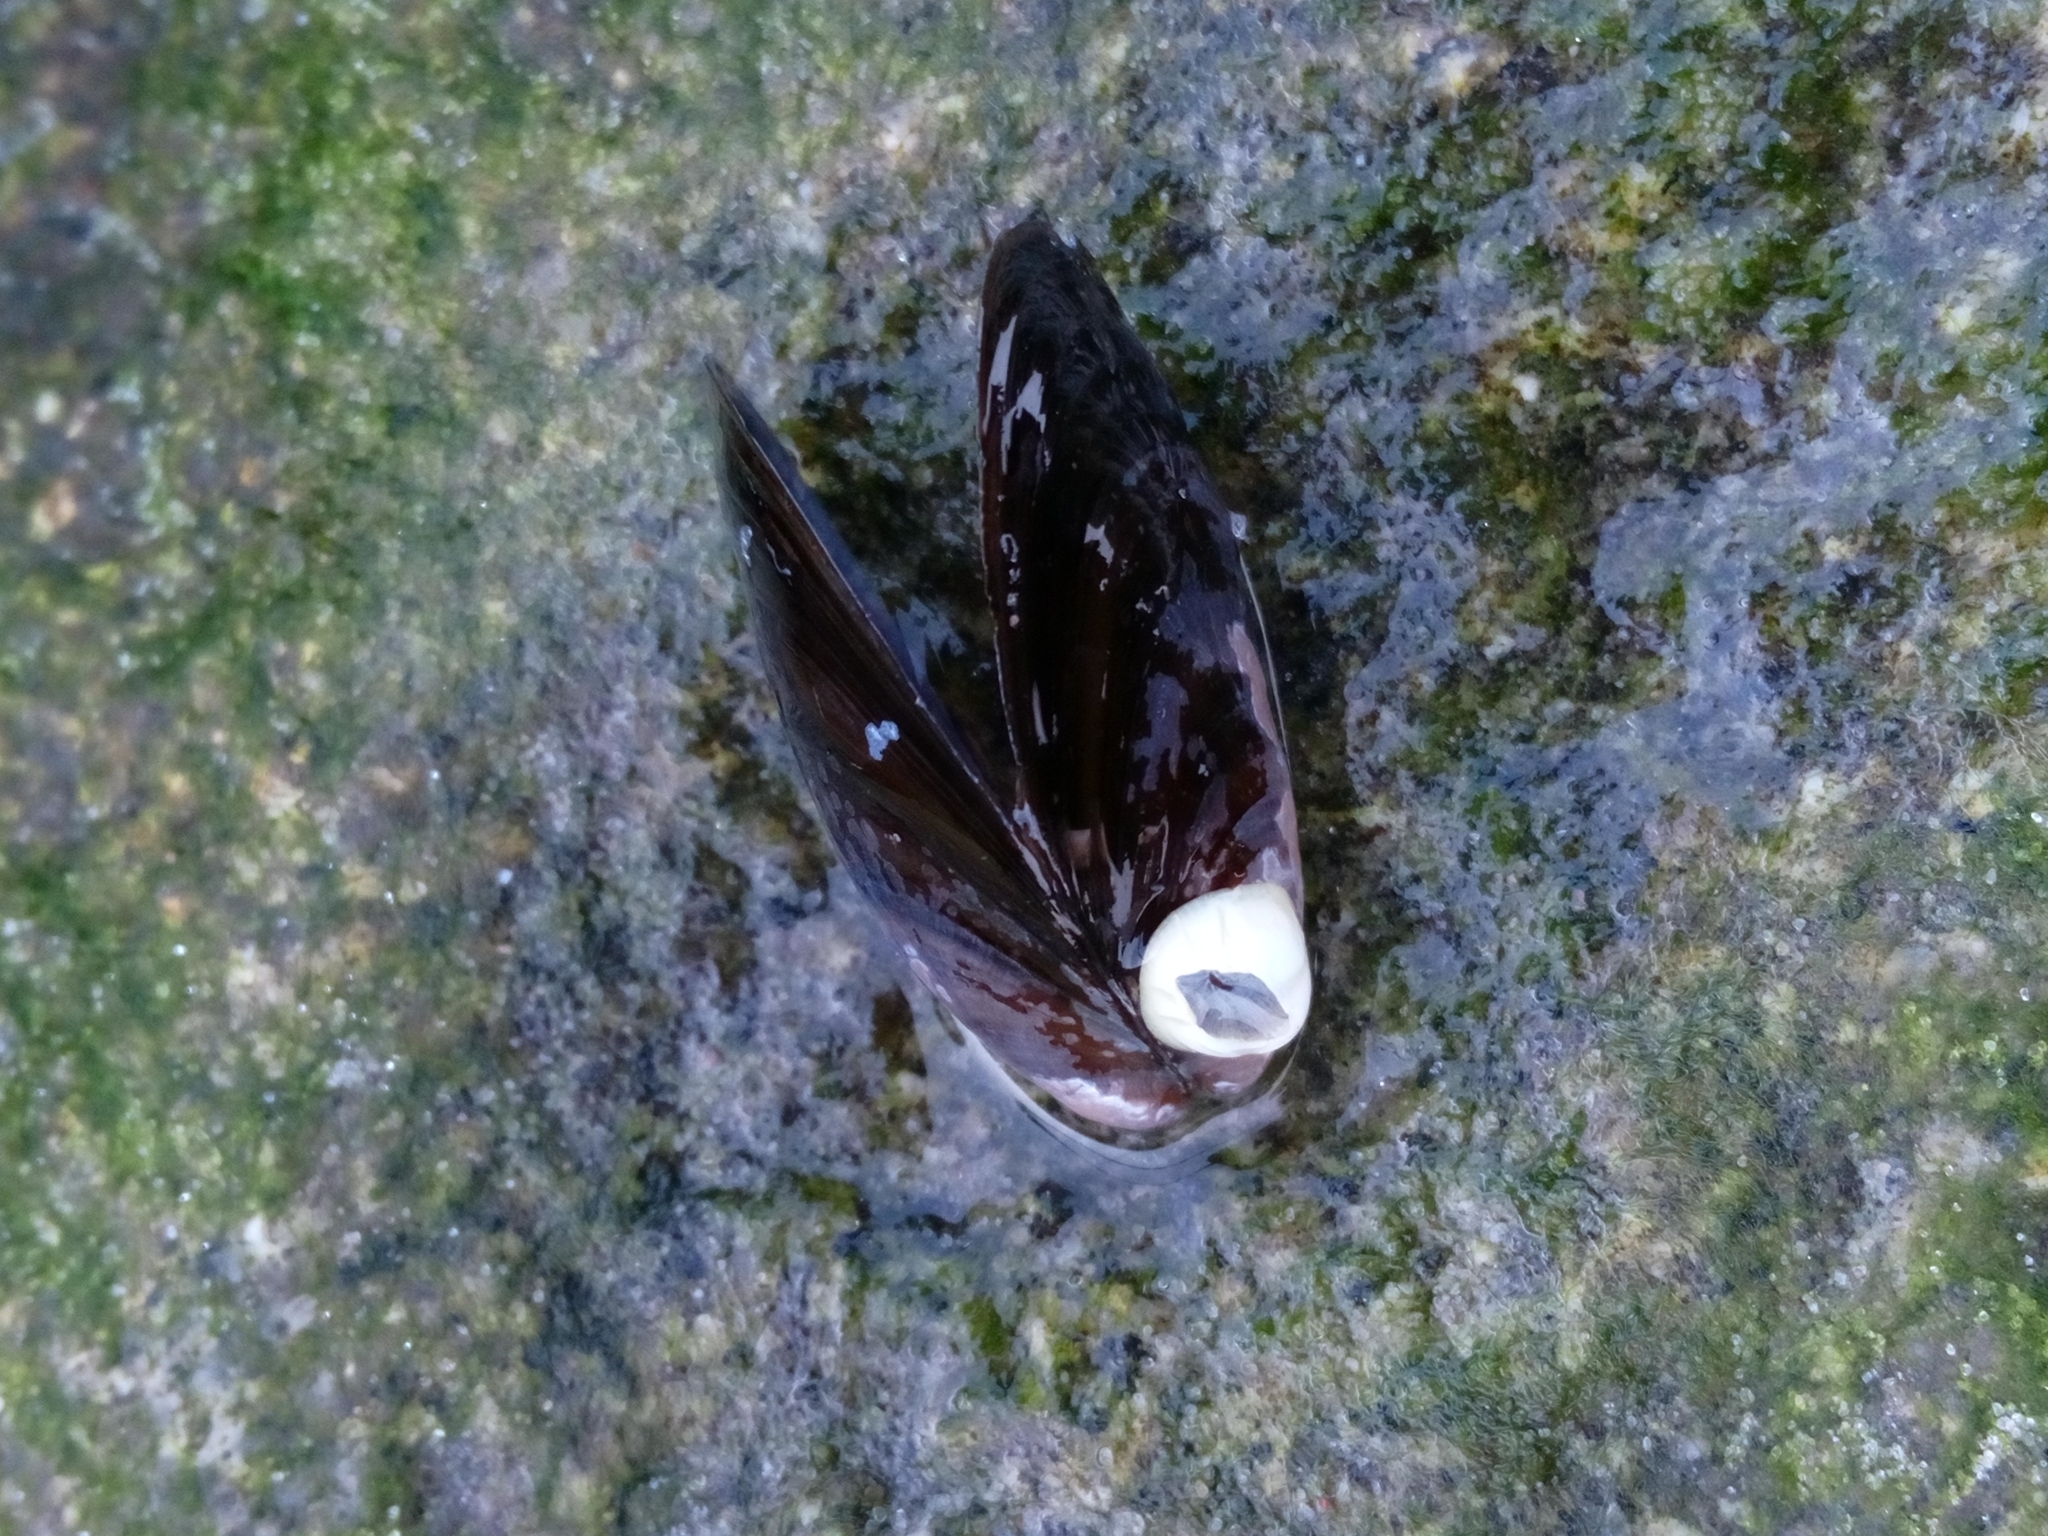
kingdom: Animalia
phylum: Arthropoda
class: Maxillopoda
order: Sessilia
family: Balanidae
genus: Amphibalanus
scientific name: Amphibalanus improvisus
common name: Bay barnacle
